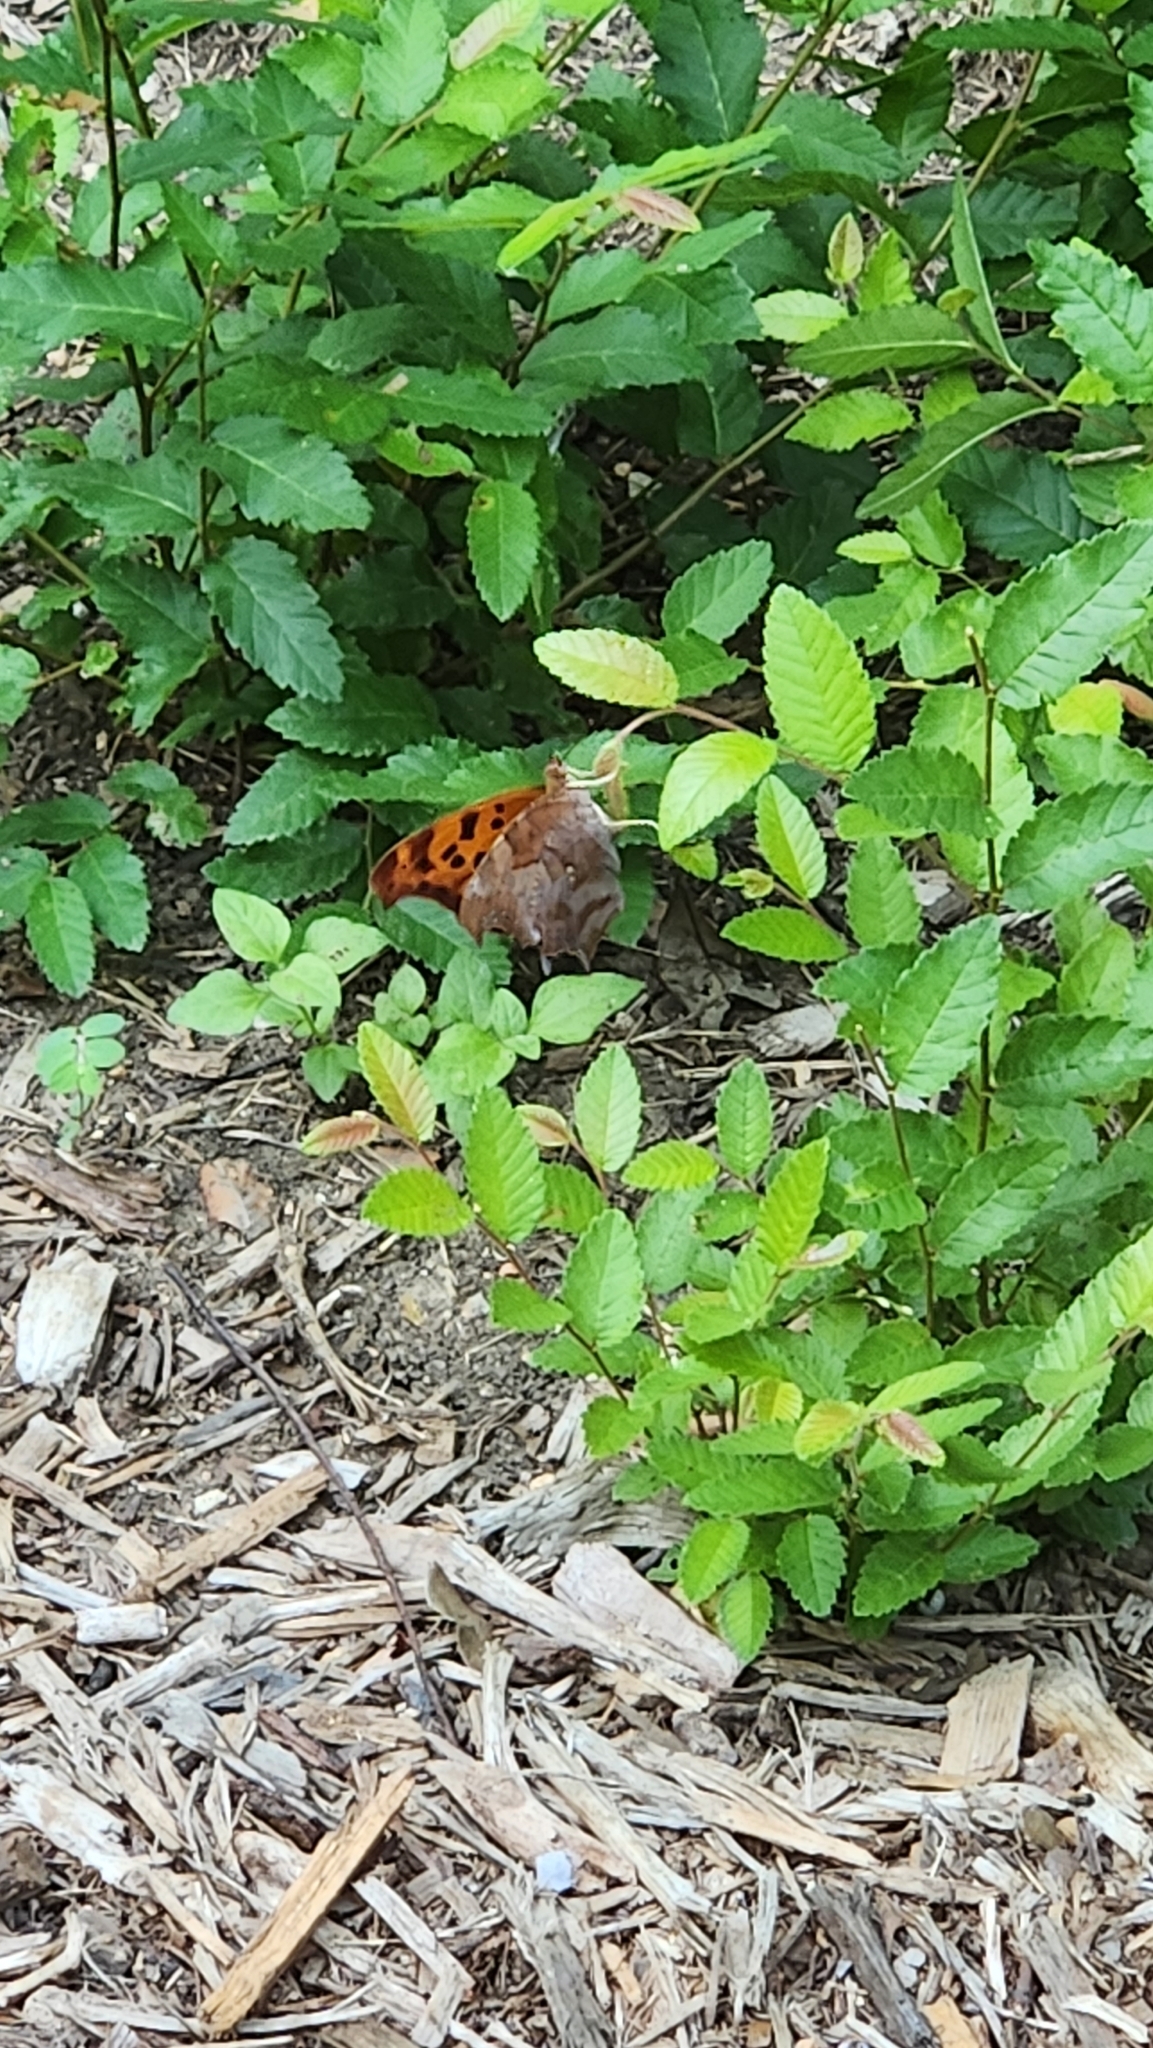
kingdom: Animalia
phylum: Arthropoda
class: Insecta
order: Lepidoptera
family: Nymphalidae
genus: Polygonia
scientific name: Polygonia interrogationis
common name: Question mark
